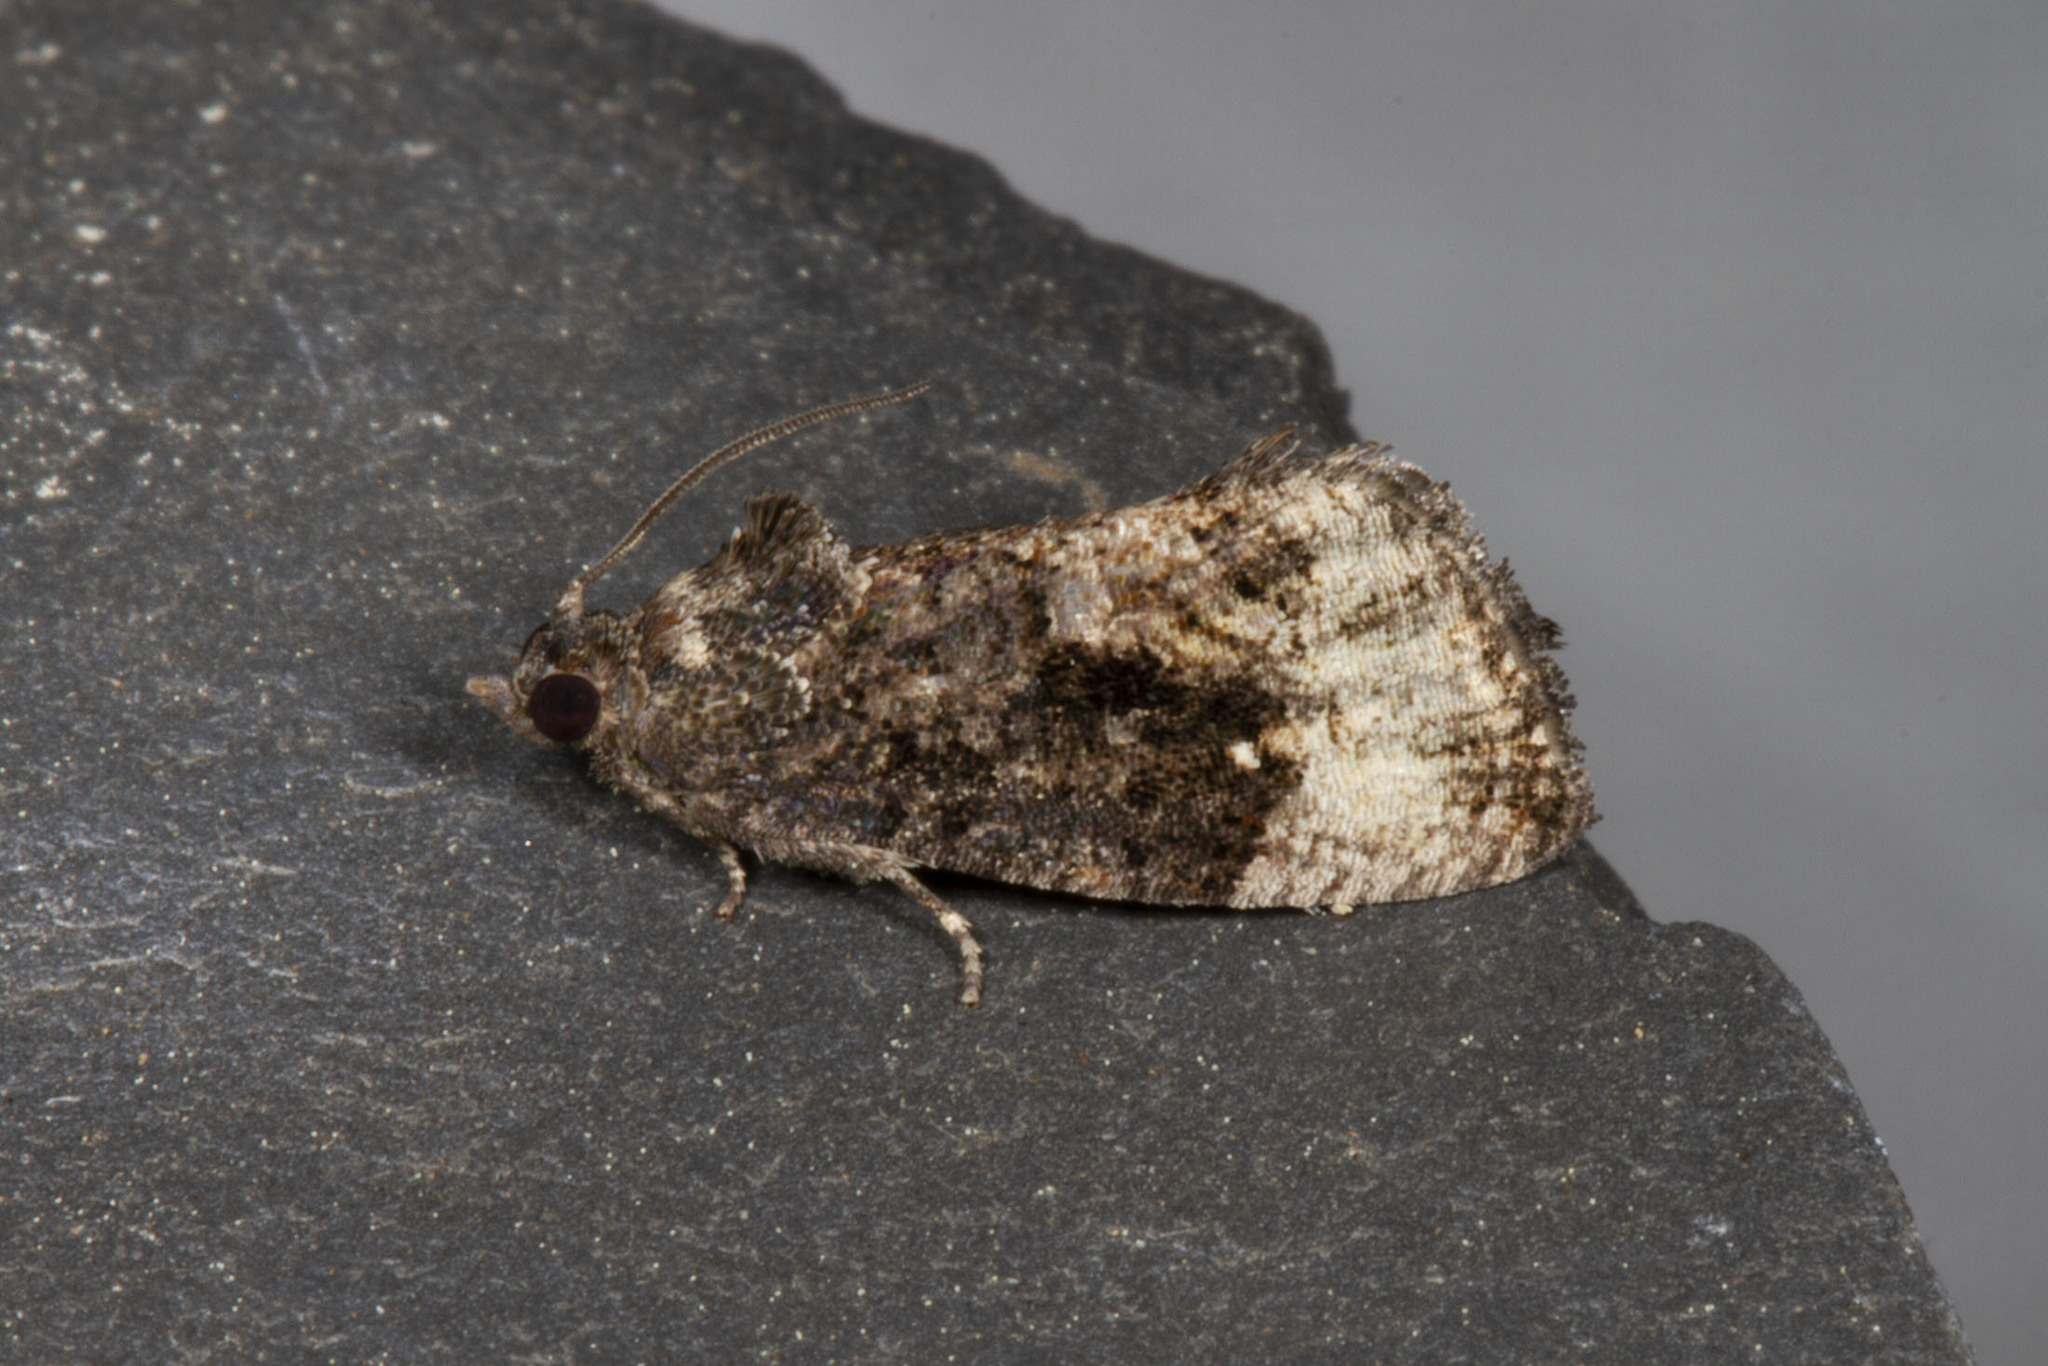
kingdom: Animalia
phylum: Arthropoda
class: Insecta
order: Lepidoptera
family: Tortricidae
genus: Gymnandrosoma
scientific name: Gymnandrosoma punctidiscanum
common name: Dotted ecdytolopha moth
